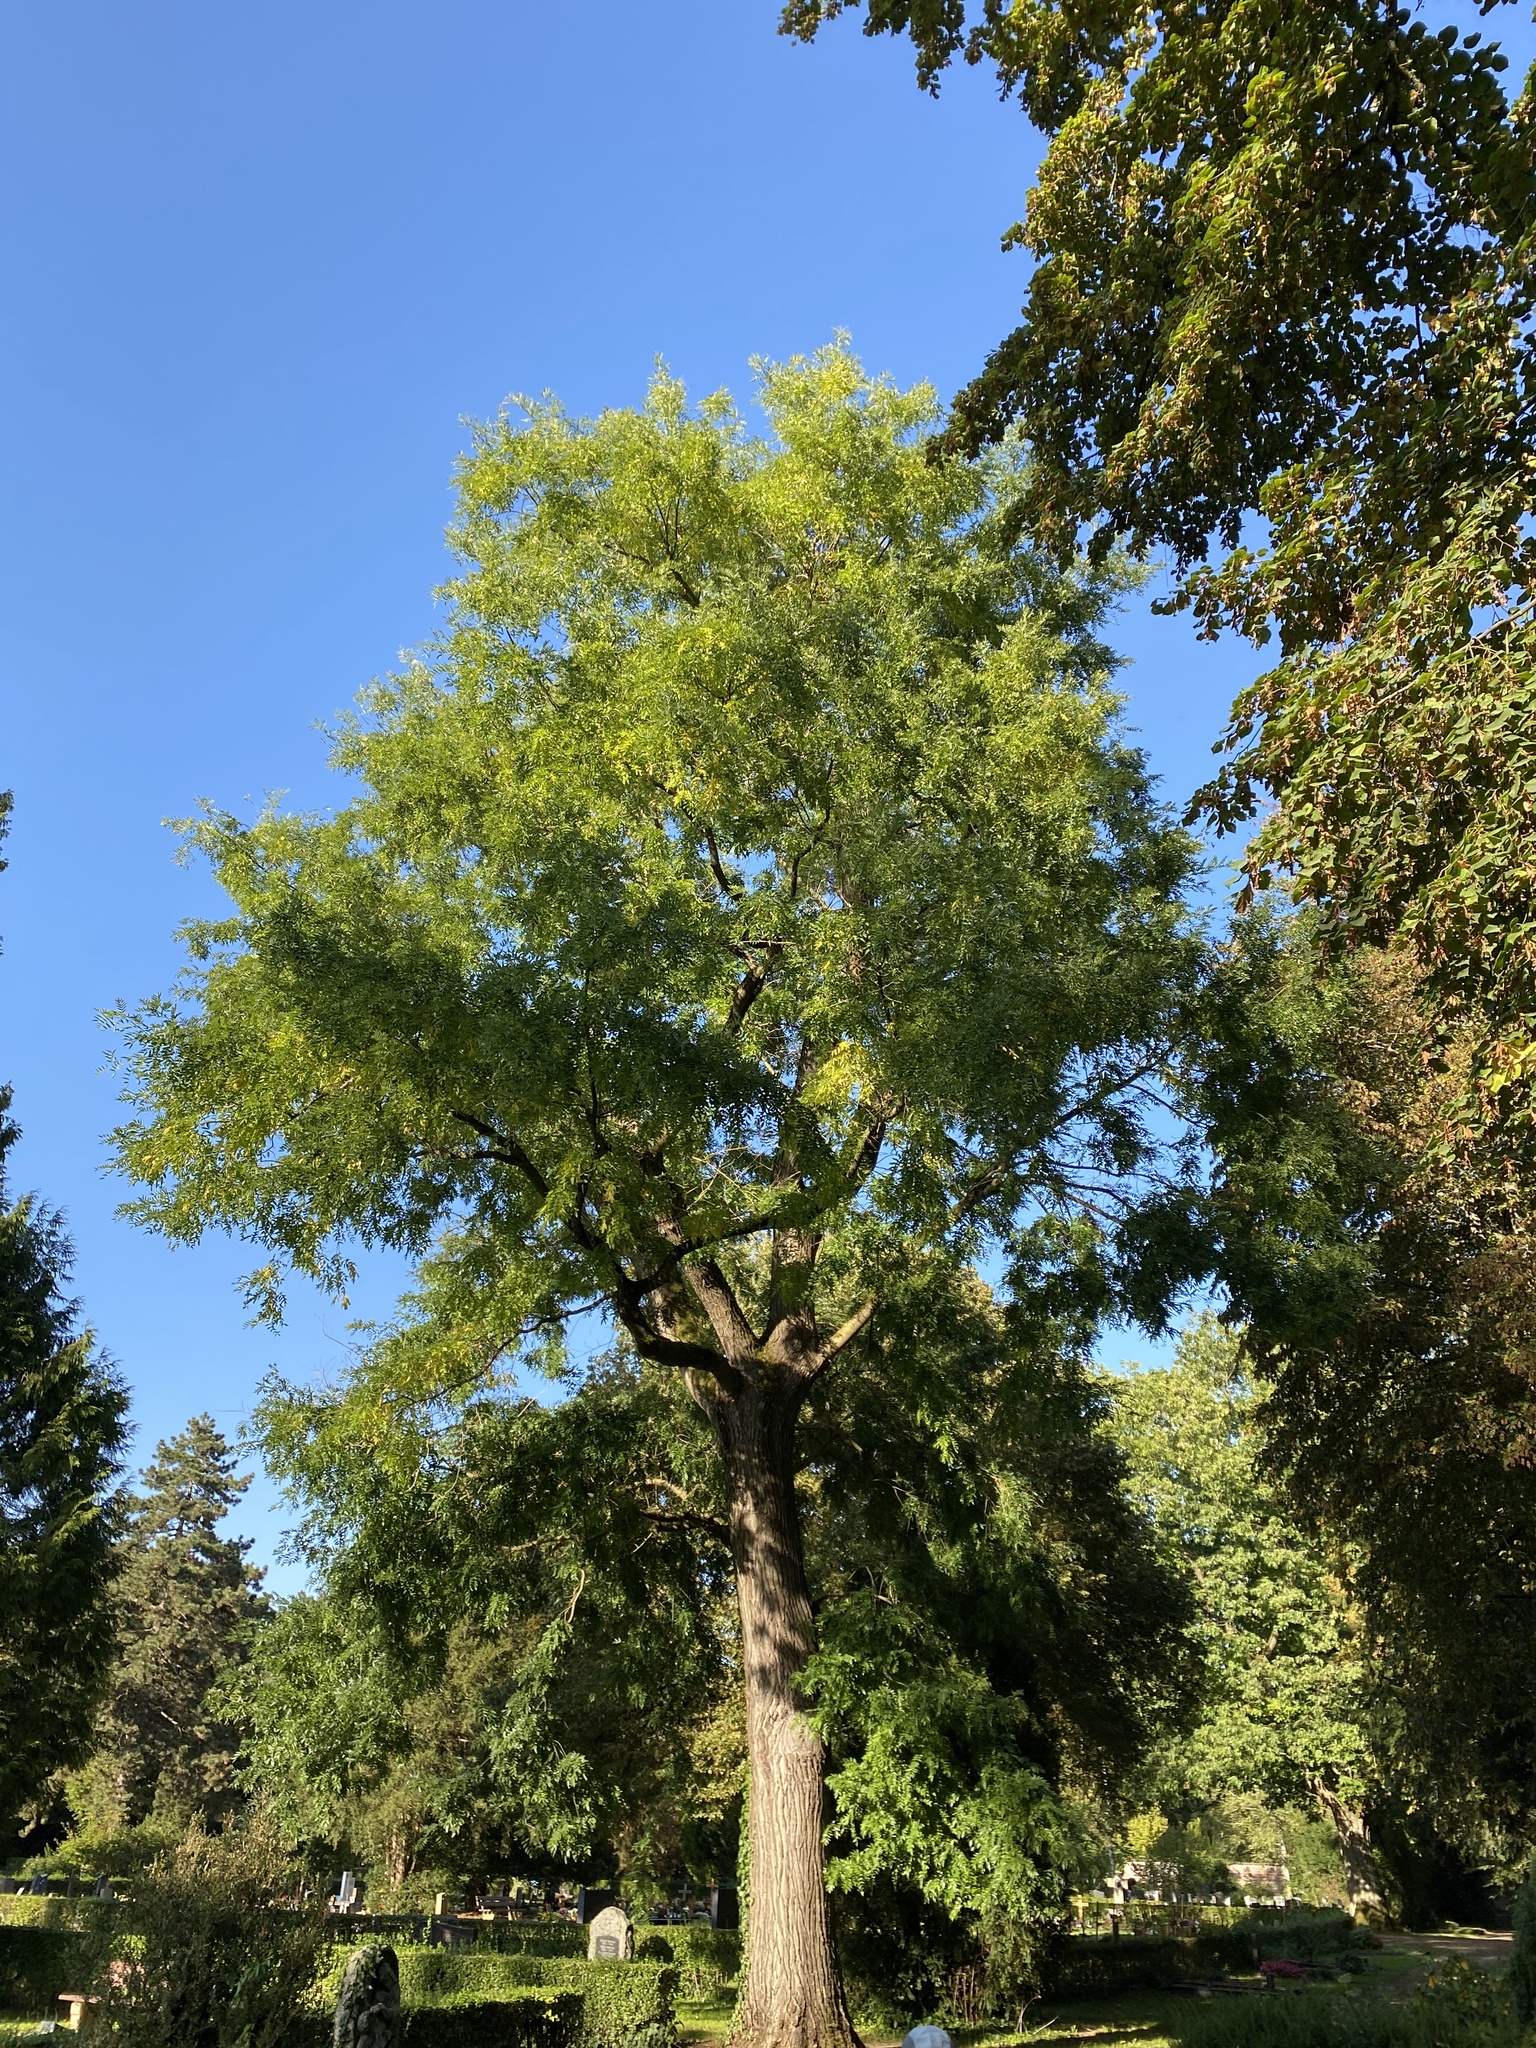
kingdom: Plantae
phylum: Tracheophyta
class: Magnoliopsida
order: Fabales
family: Fabaceae
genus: Styphnolobium
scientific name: Styphnolobium japonicum
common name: Chinese scholartree
